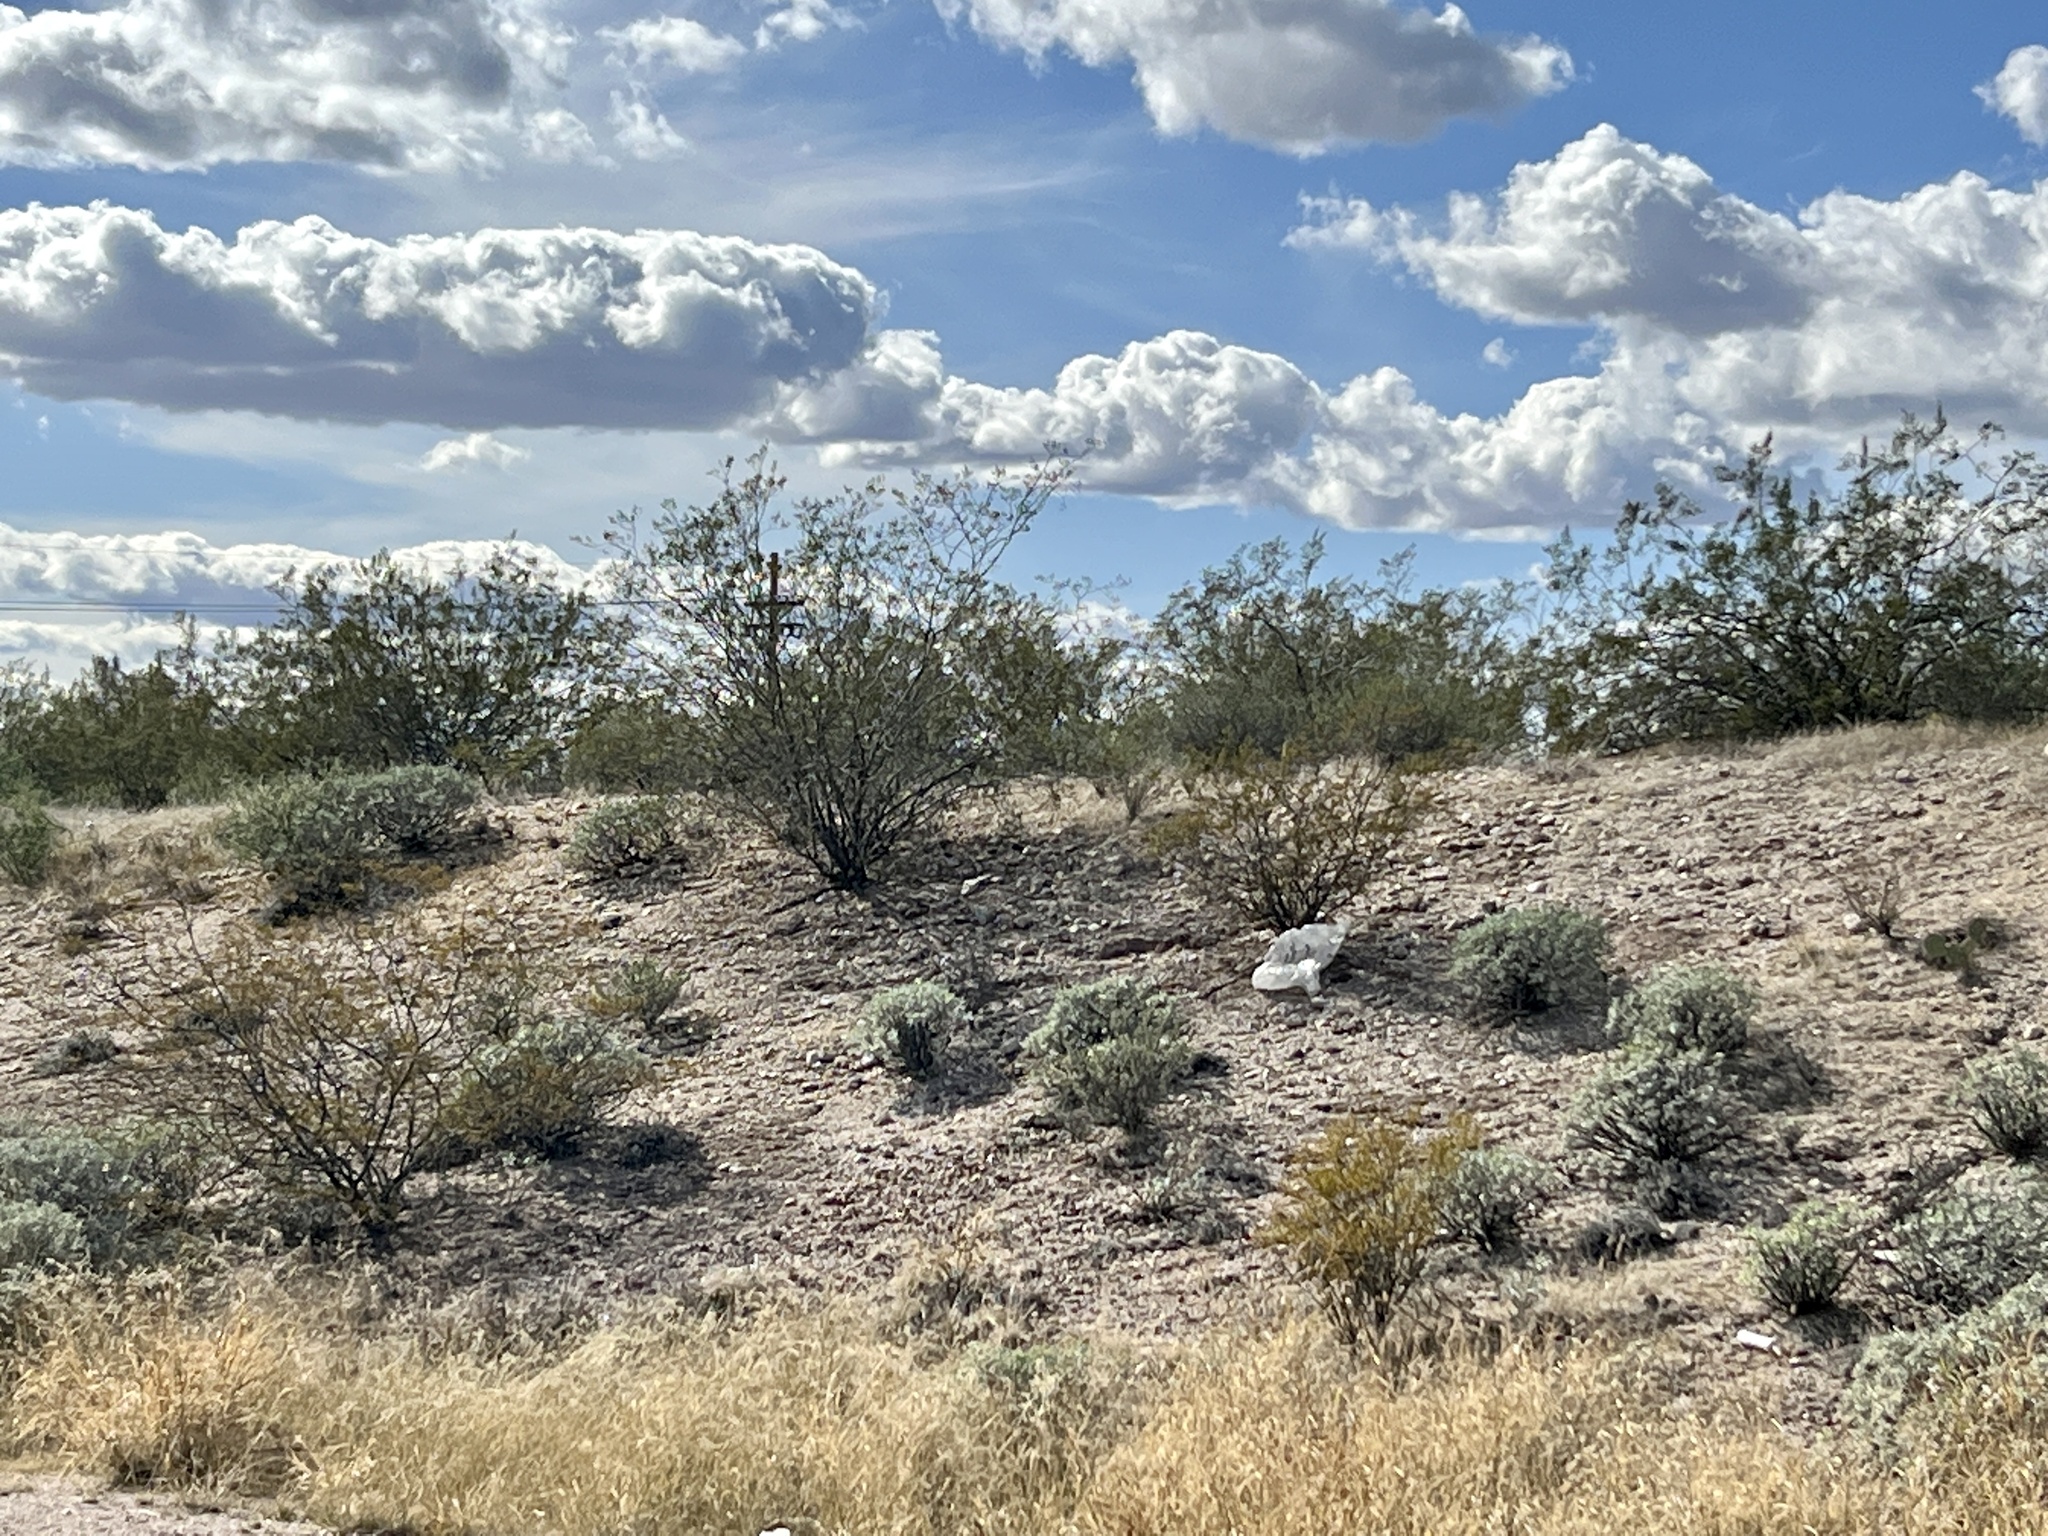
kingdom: Plantae
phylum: Tracheophyta
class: Magnoliopsida
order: Zygophyllales
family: Zygophyllaceae
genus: Larrea
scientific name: Larrea tridentata
